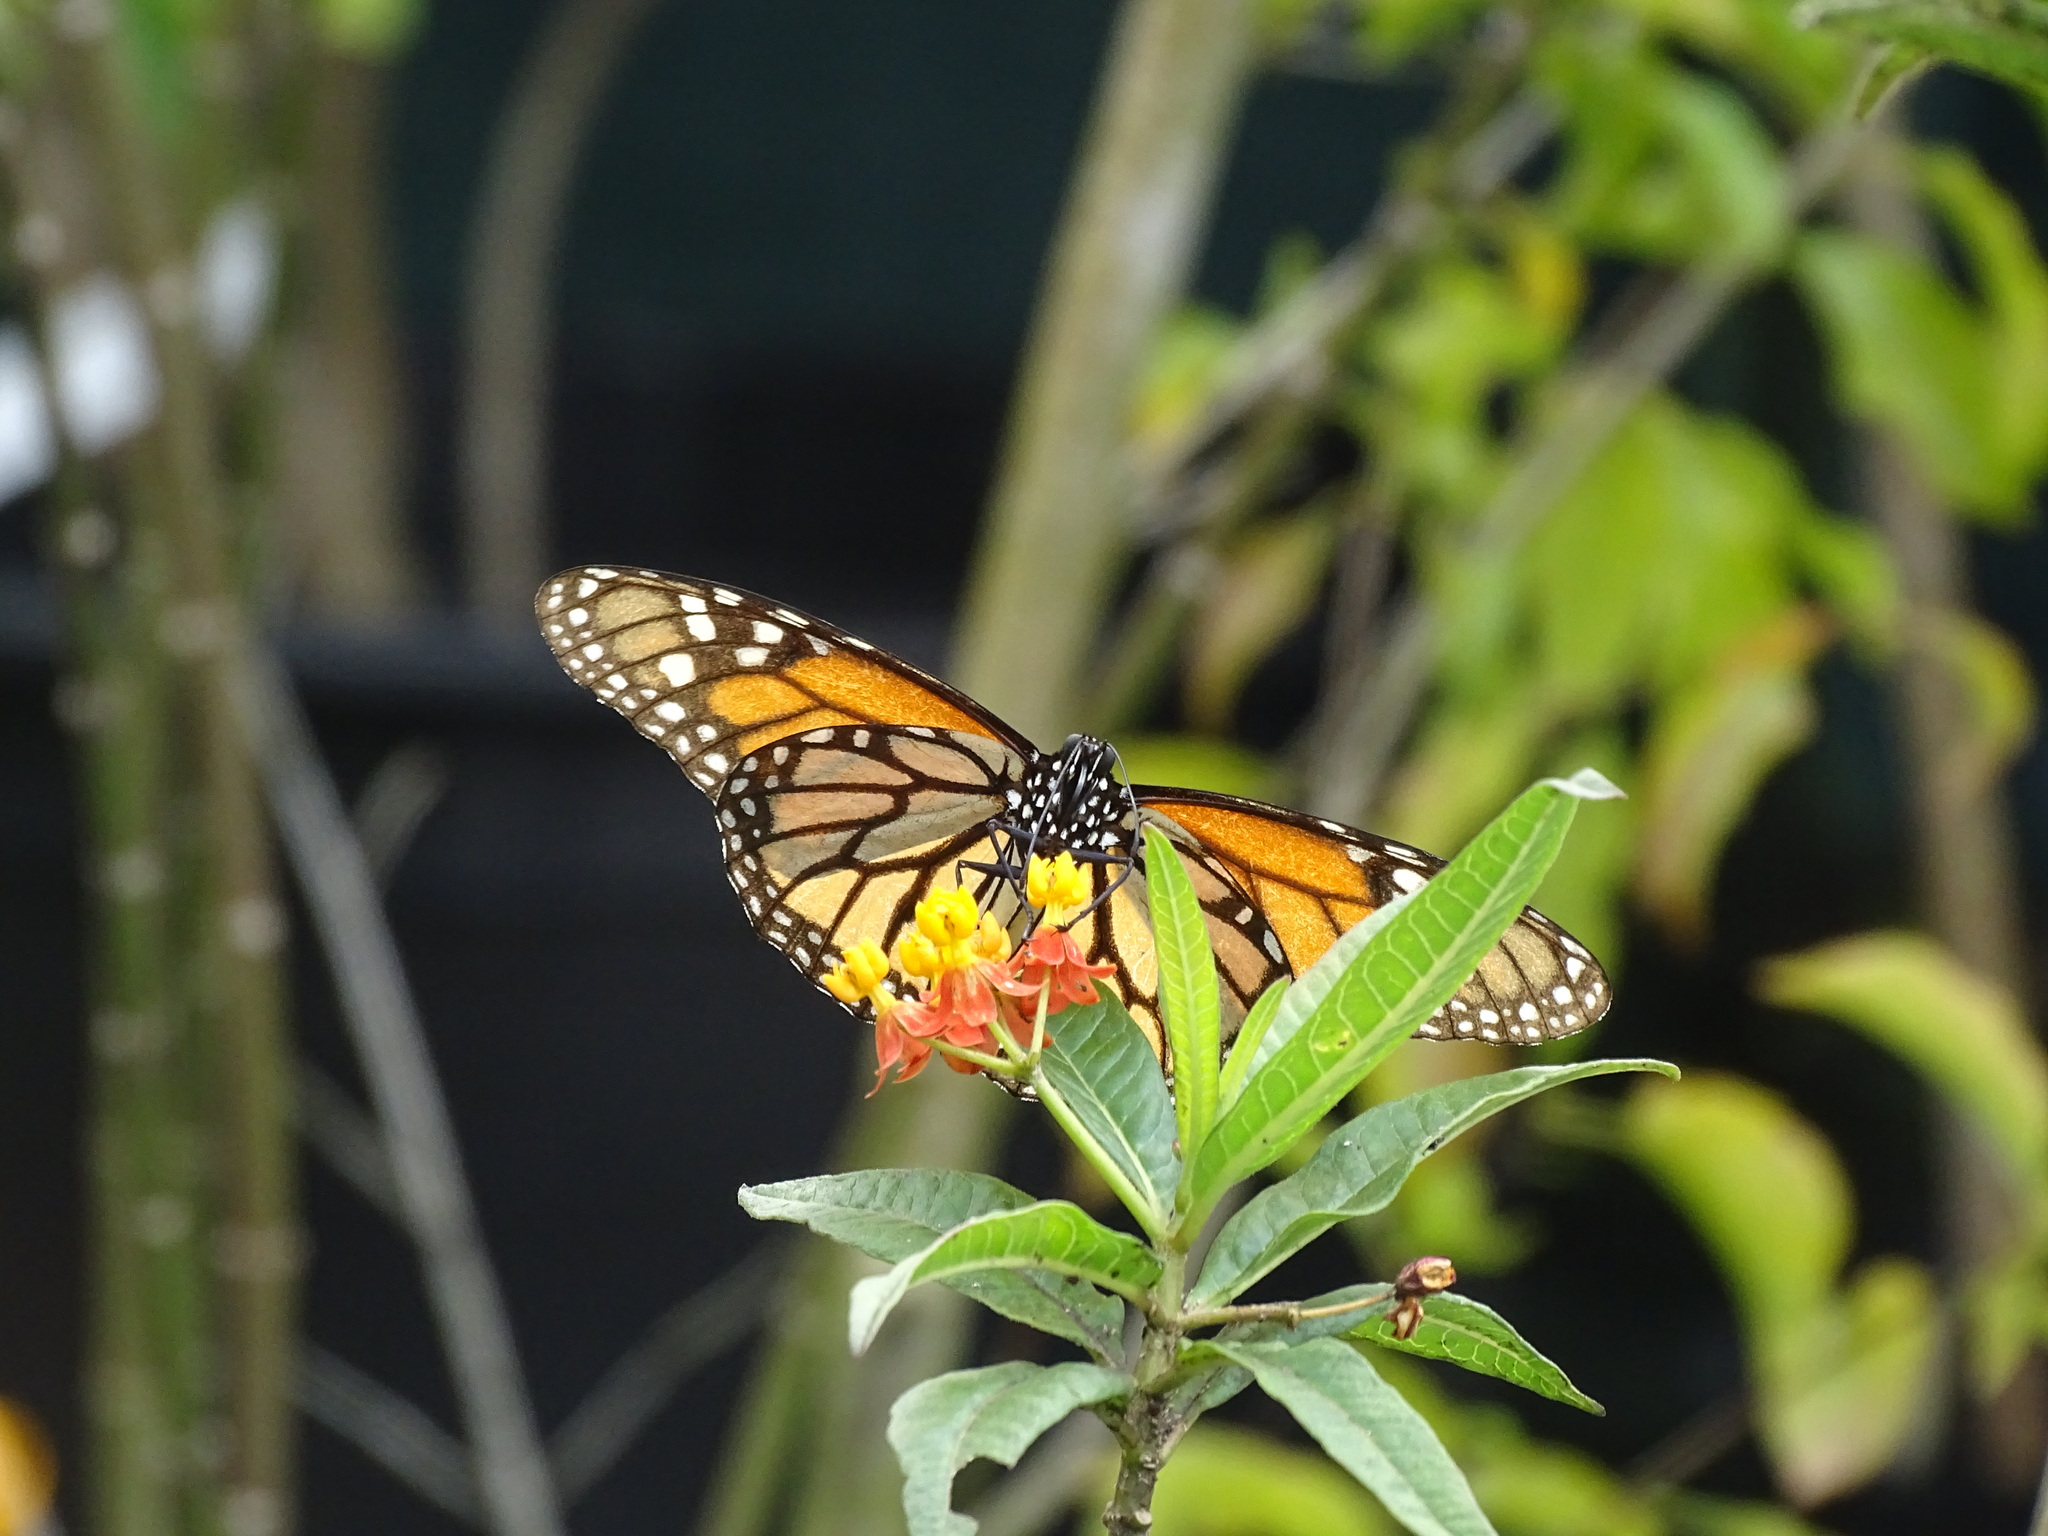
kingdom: Animalia
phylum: Arthropoda
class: Insecta
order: Lepidoptera
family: Nymphalidae
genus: Danaus
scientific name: Danaus plexippus
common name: Monarch
